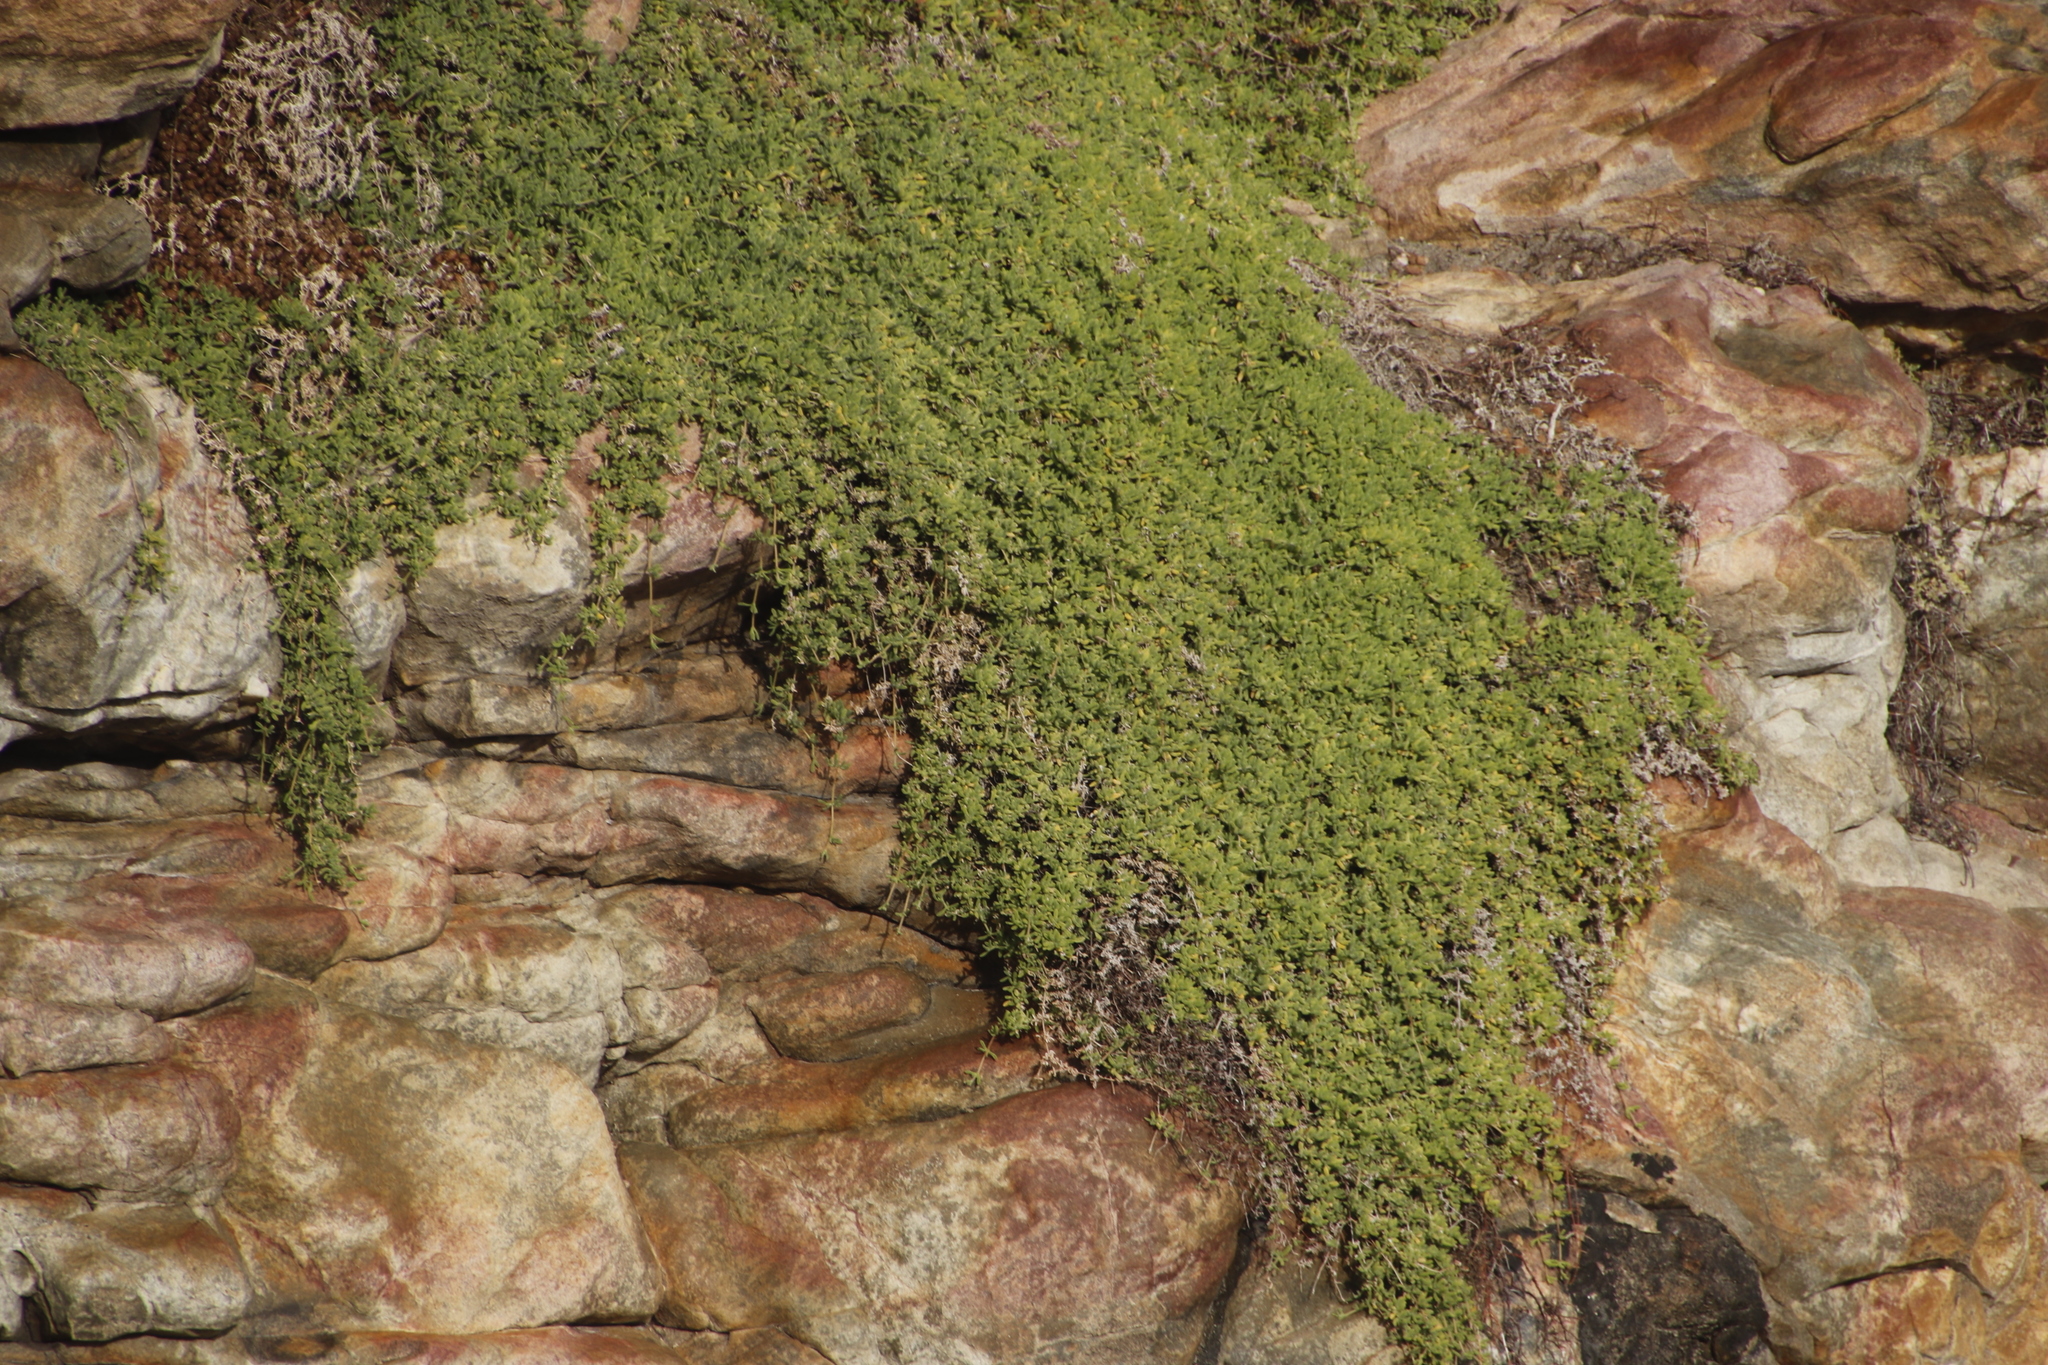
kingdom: Plantae
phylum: Tracheophyta
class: Magnoliopsida
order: Caryophyllales
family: Aizoaceae
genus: Drosanthemum
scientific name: Drosanthemum candens
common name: Rodondo-creeper
